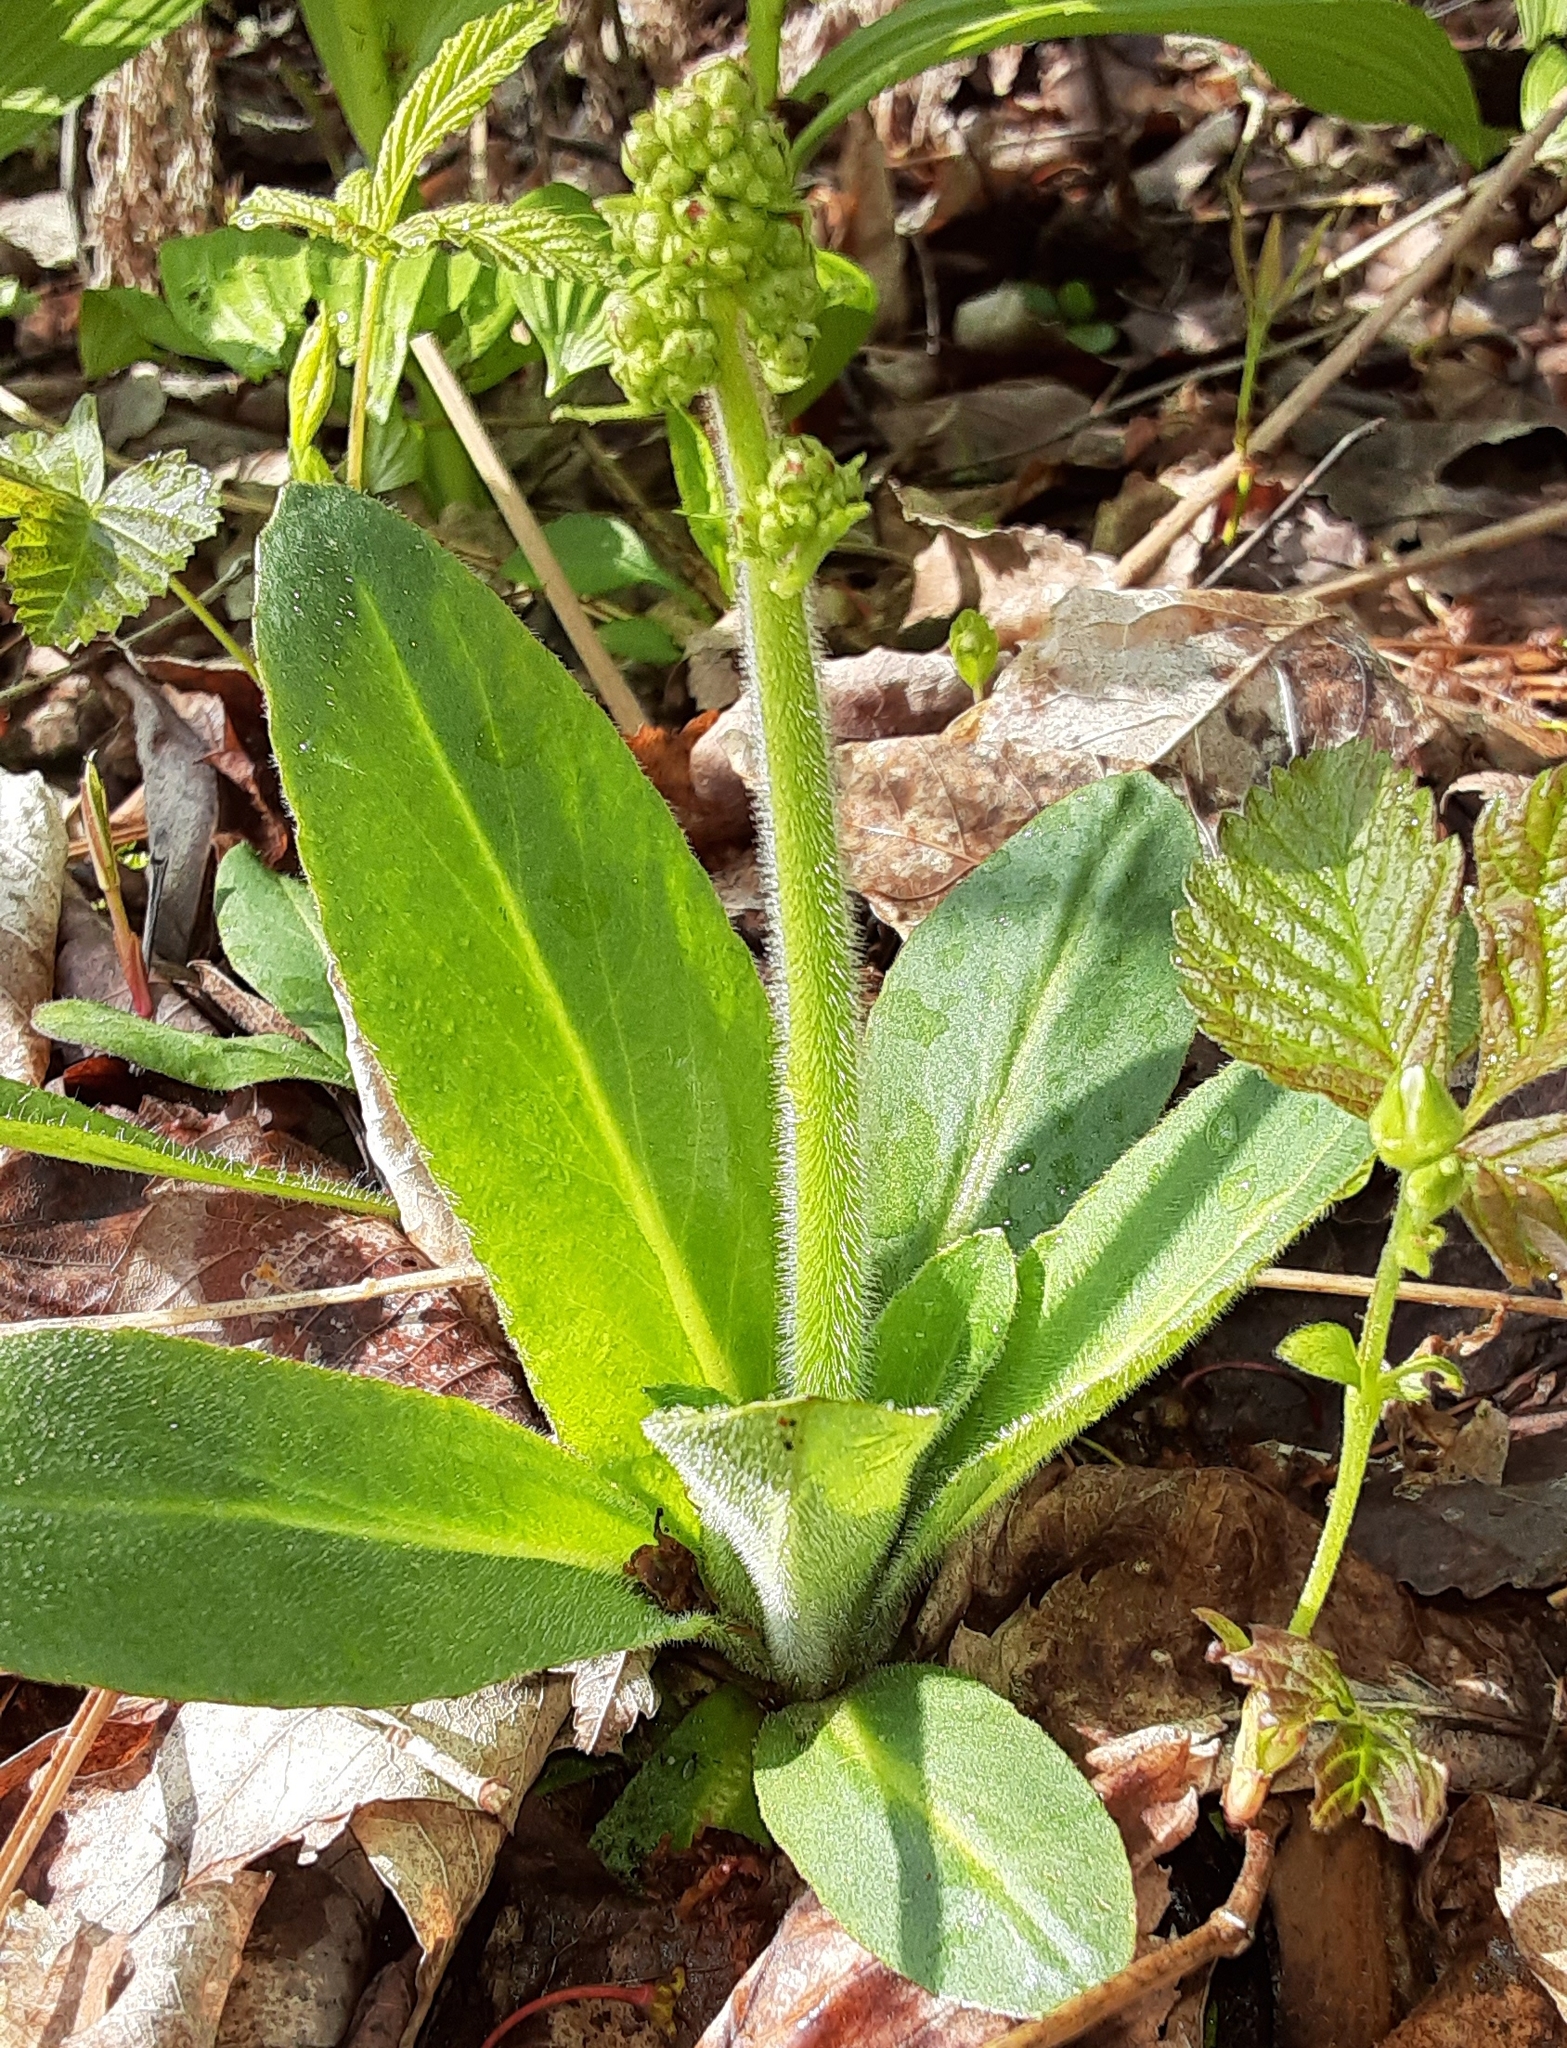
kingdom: Plantae
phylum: Tracheophyta
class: Magnoliopsida
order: Saxifragales
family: Saxifragaceae
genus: Micranthes
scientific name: Micranthes pensylvanica
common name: Marsh saxifrage
